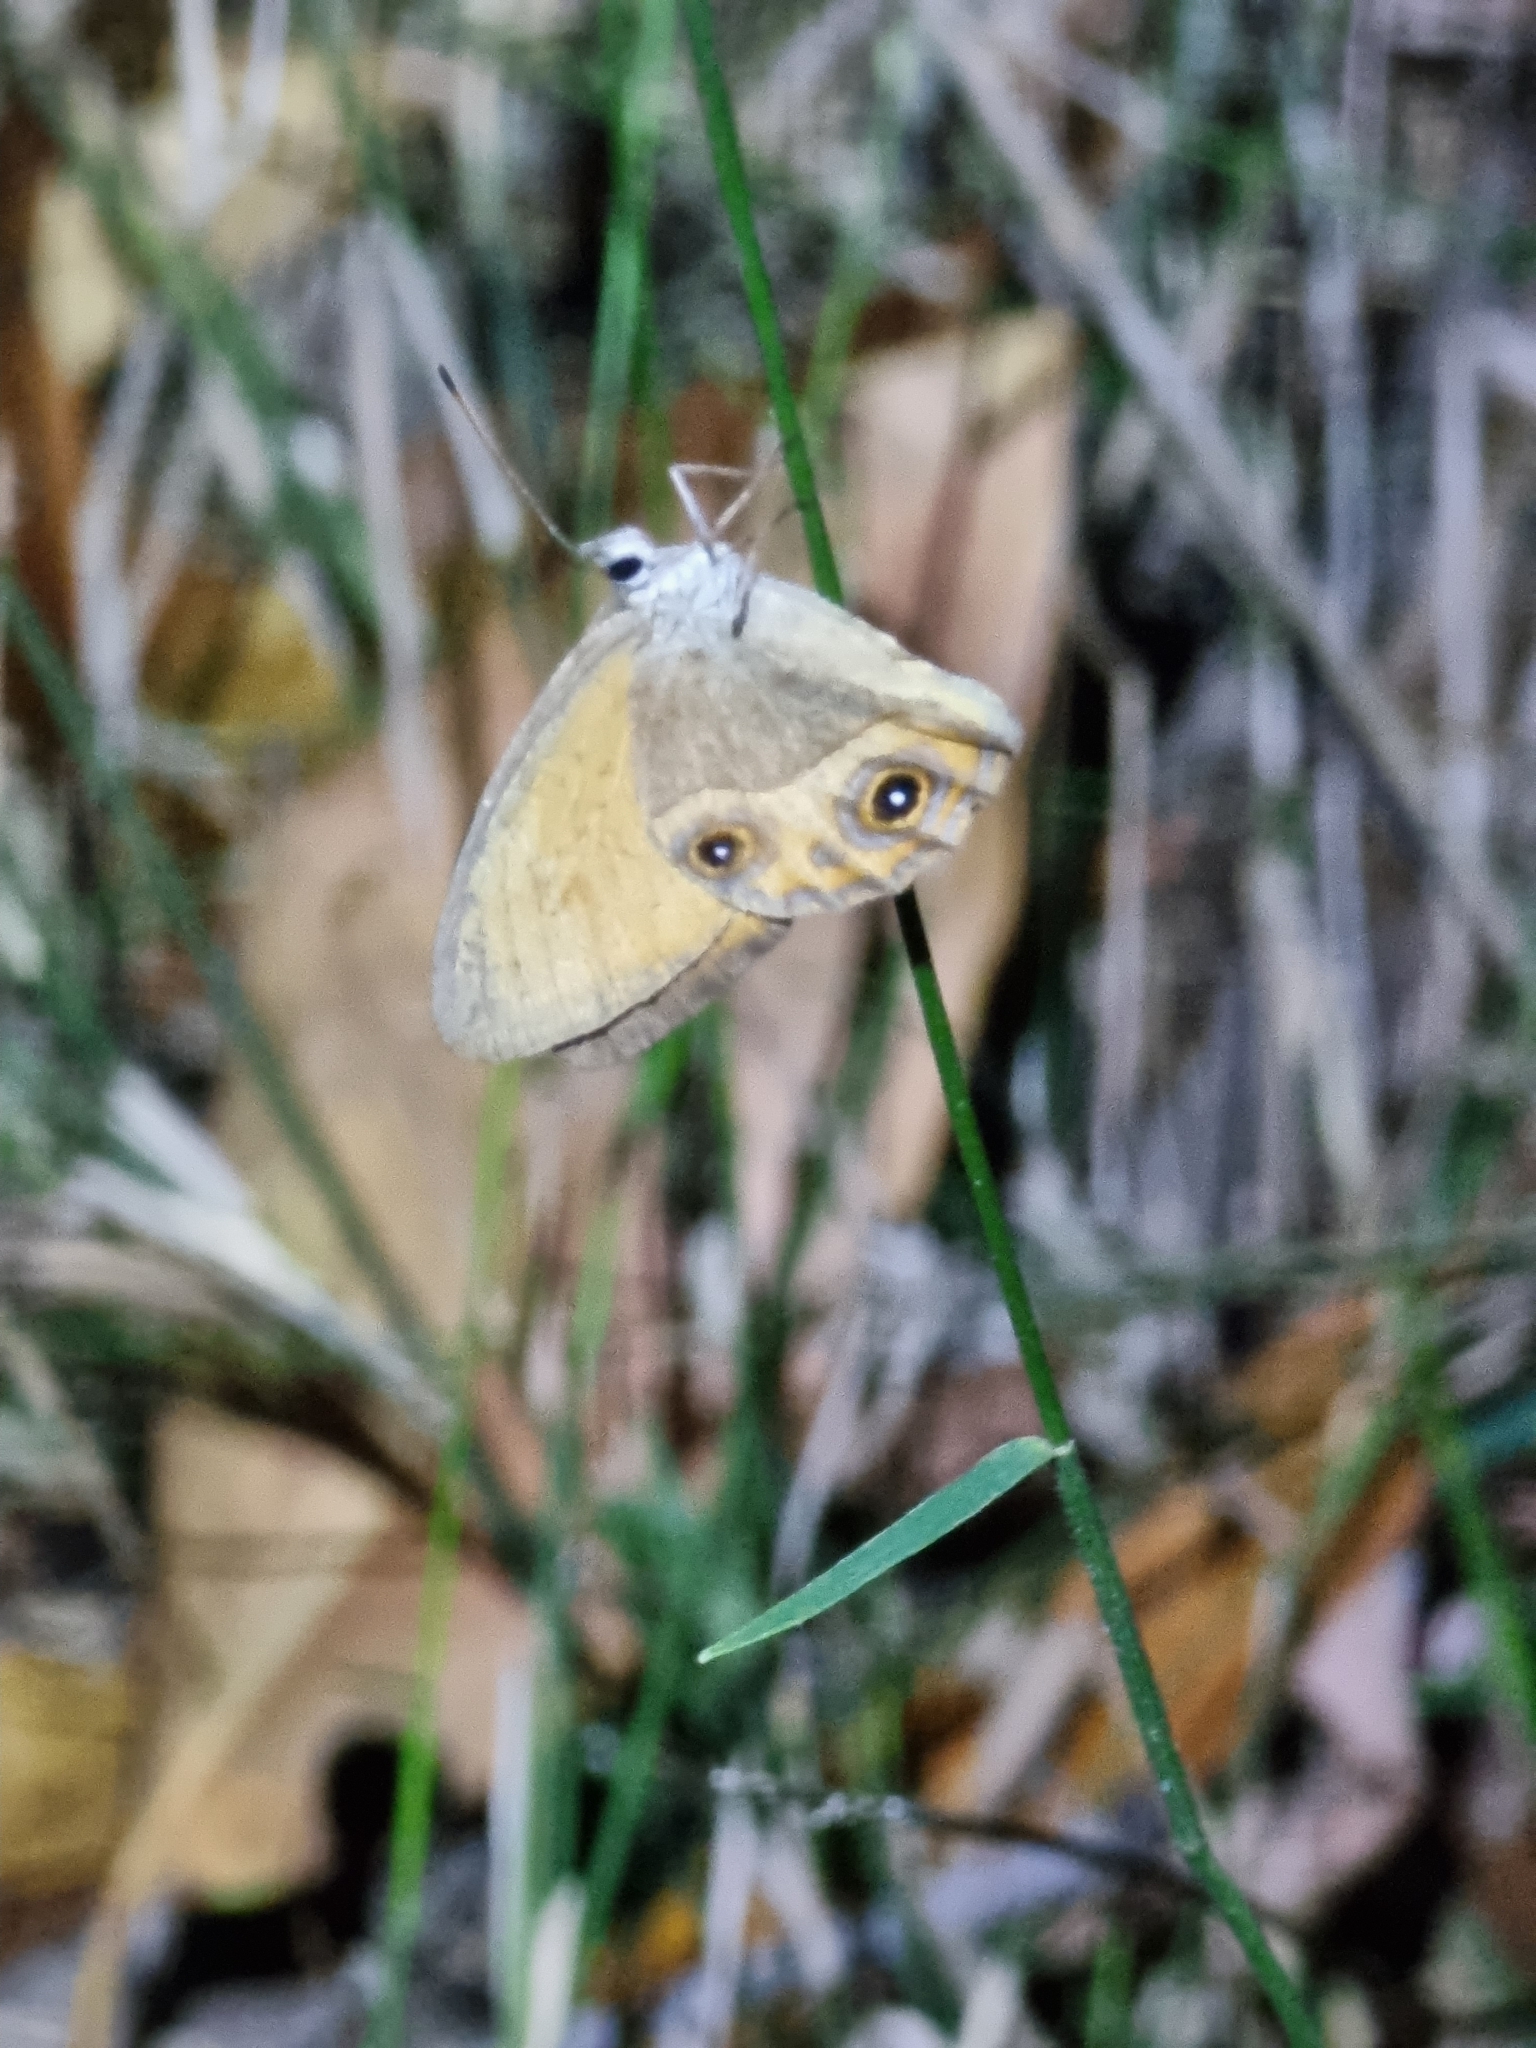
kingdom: Animalia
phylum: Arthropoda
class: Insecta
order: Lepidoptera
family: Nymphalidae
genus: Hypocysta
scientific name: Hypocysta adiante
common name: Orange ringlet
